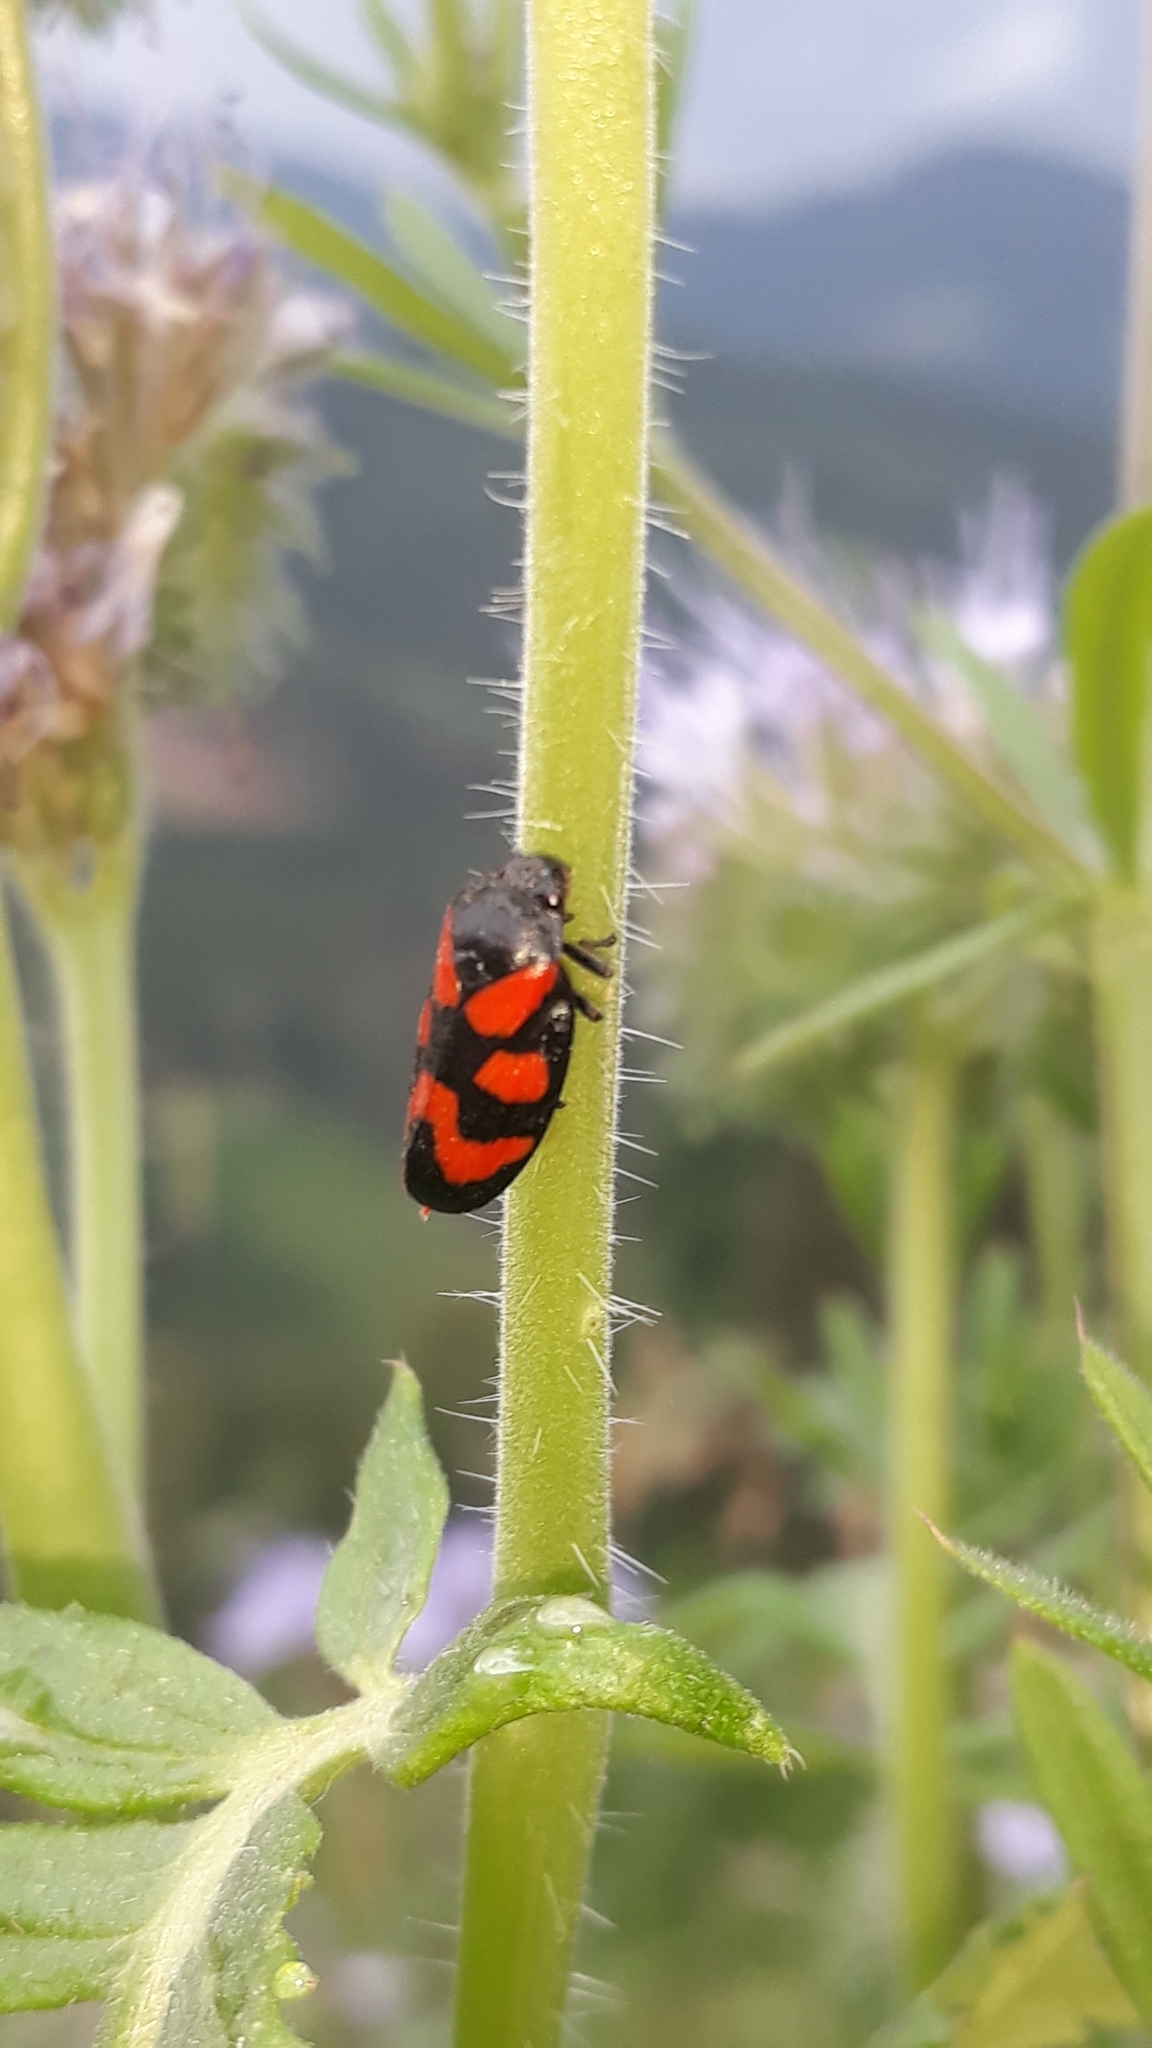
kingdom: Animalia
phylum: Arthropoda
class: Insecta
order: Hemiptera
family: Cercopidae
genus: Cercopis
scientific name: Cercopis vulnerata
